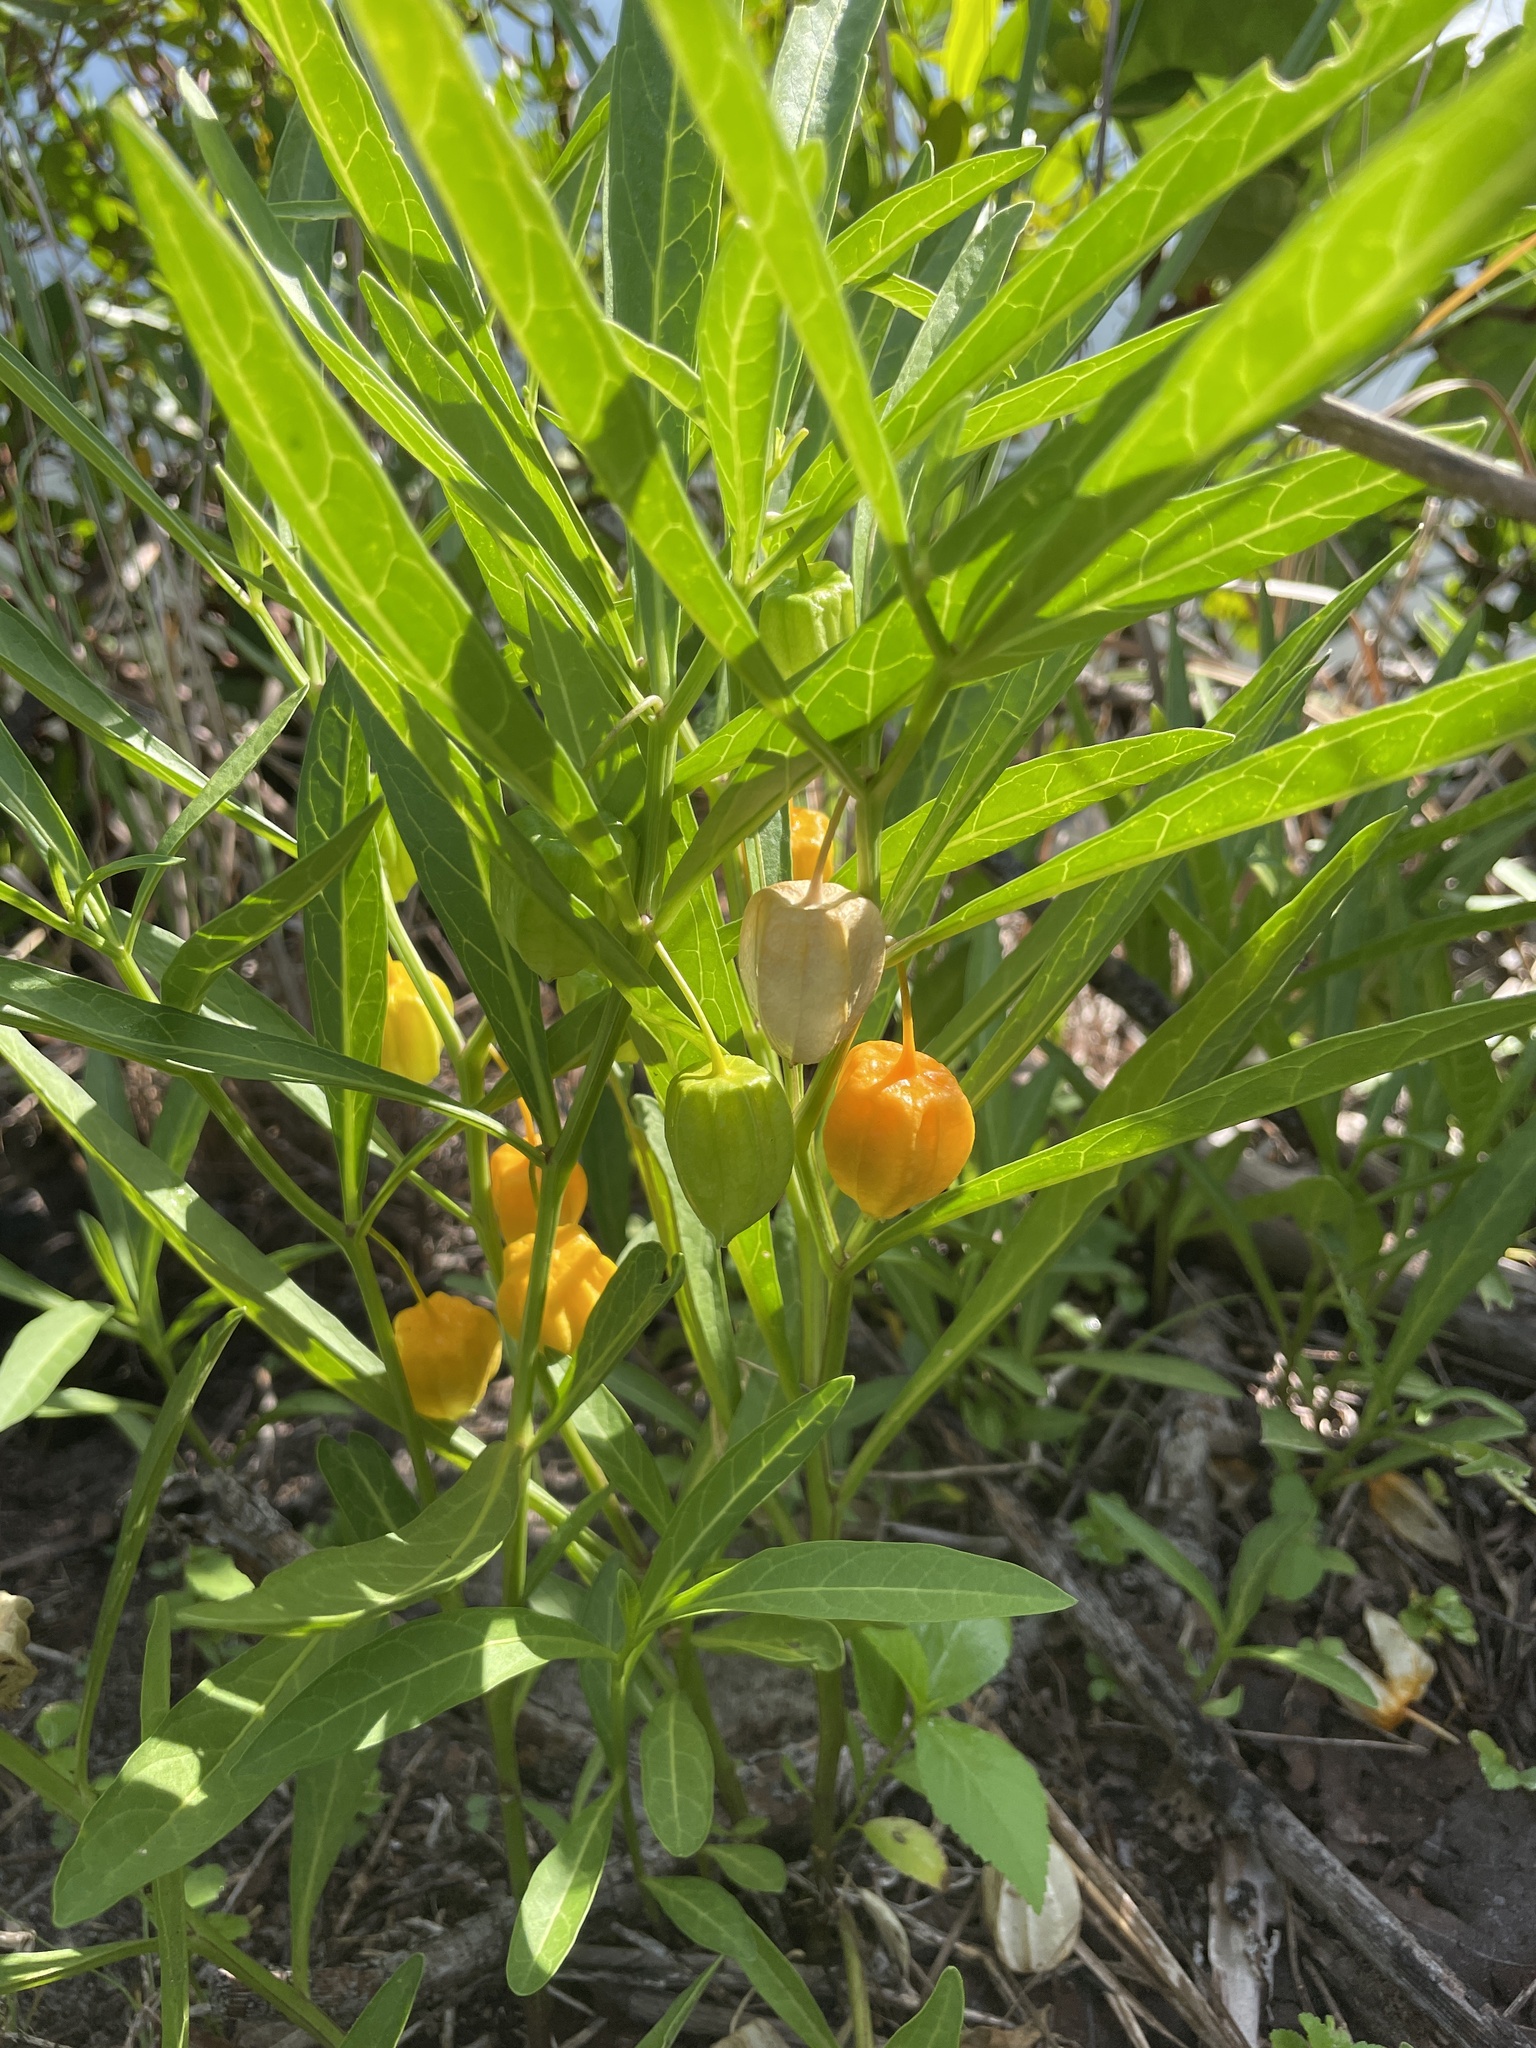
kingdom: Plantae
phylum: Tracheophyta
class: Magnoliopsida
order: Solanales
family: Solanaceae
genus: Physalis
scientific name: Physalis elliottii
